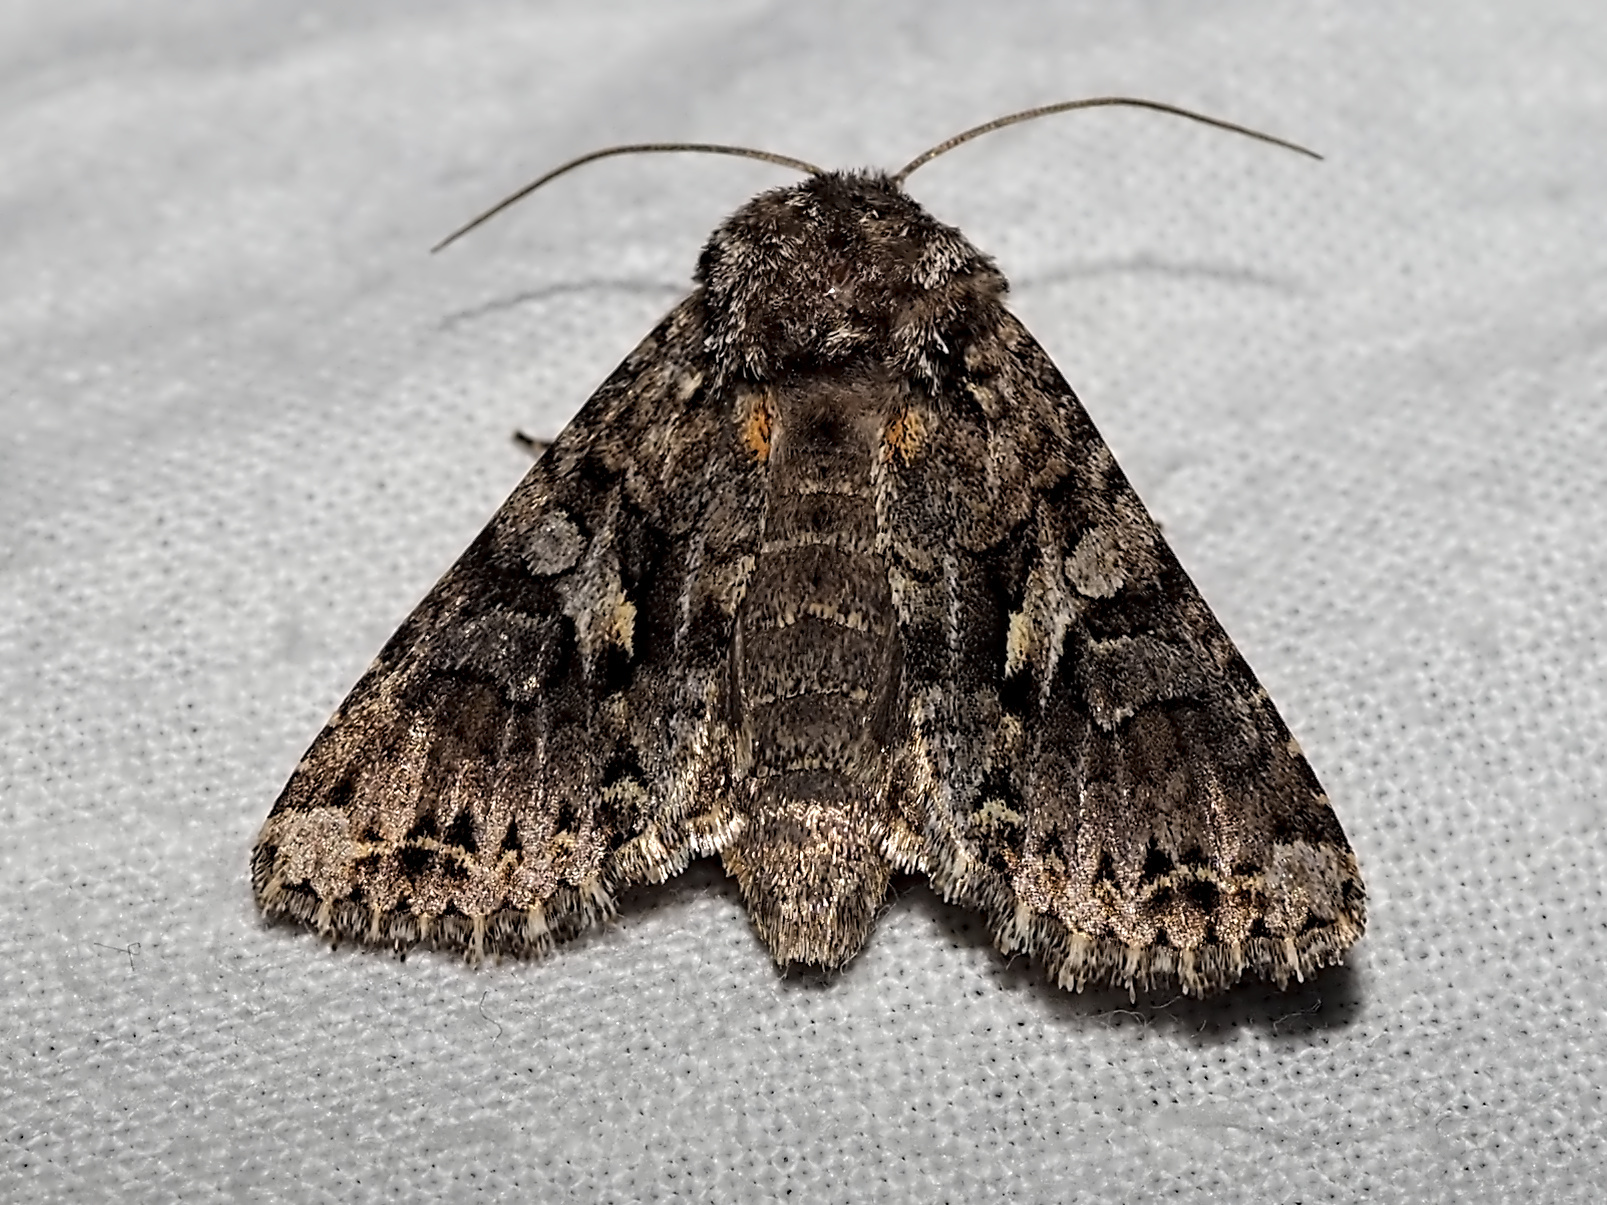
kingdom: Animalia
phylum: Arthropoda
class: Insecta
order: Lepidoptera
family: Noctuidae
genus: Hada
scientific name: Hada plebeja
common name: Shears
